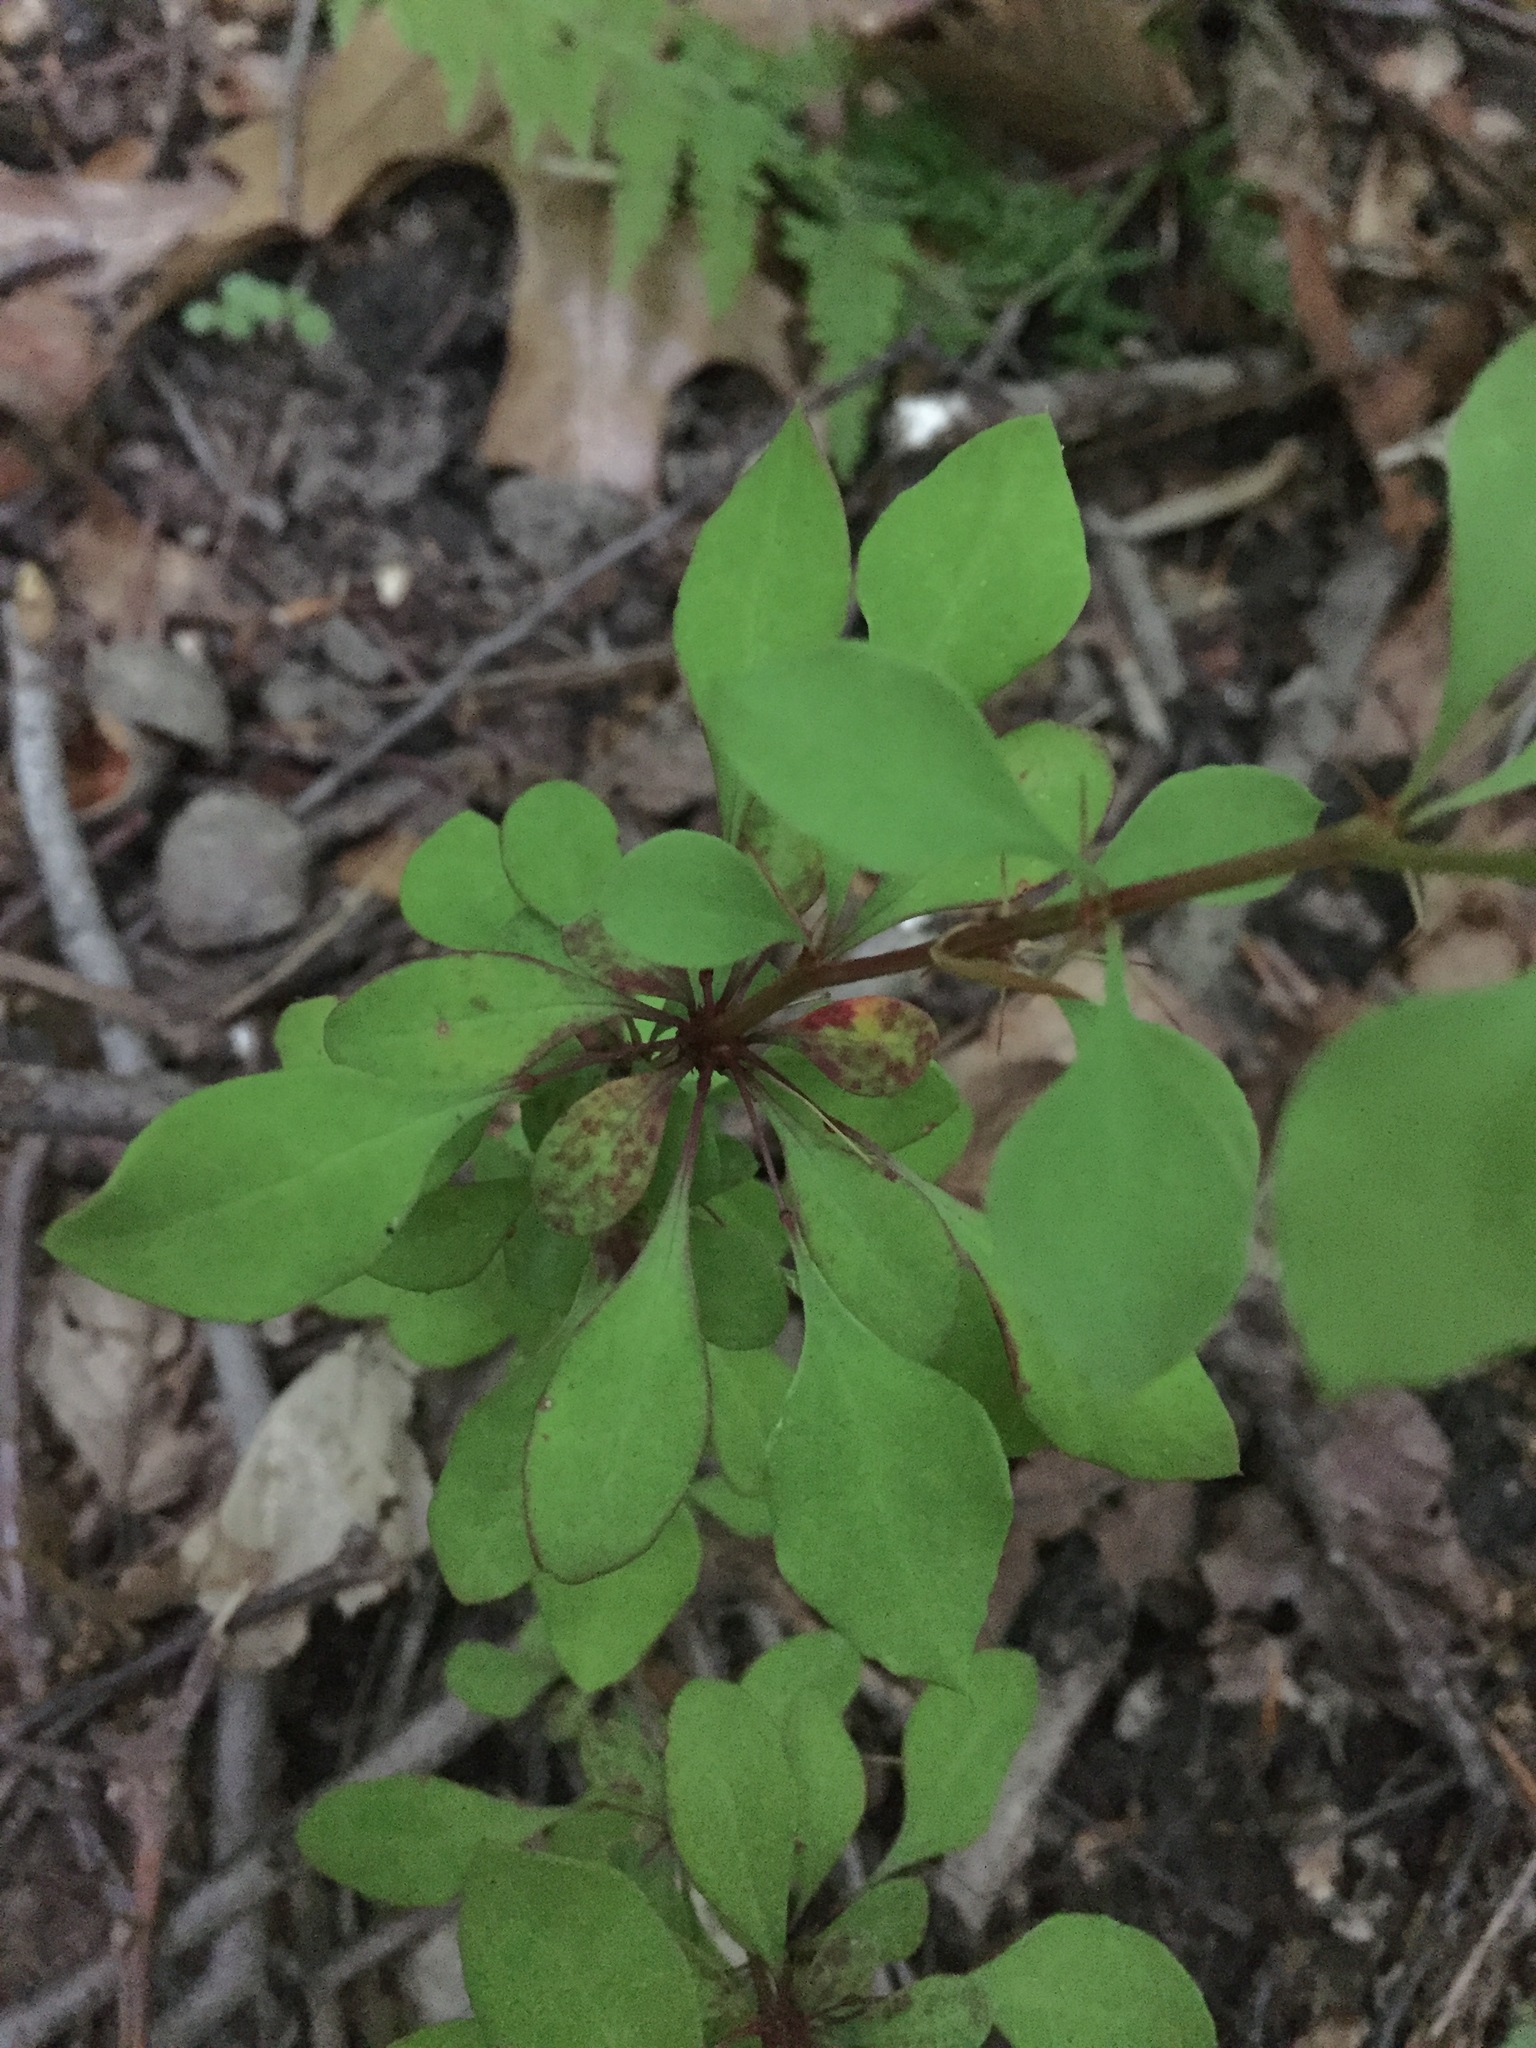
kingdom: Plantae
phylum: Tracheophyta
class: Magnoliopsida
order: Ranunculales
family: Berberidaceae
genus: Berberis
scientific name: Berberis thunbergii
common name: Japanese barberry
